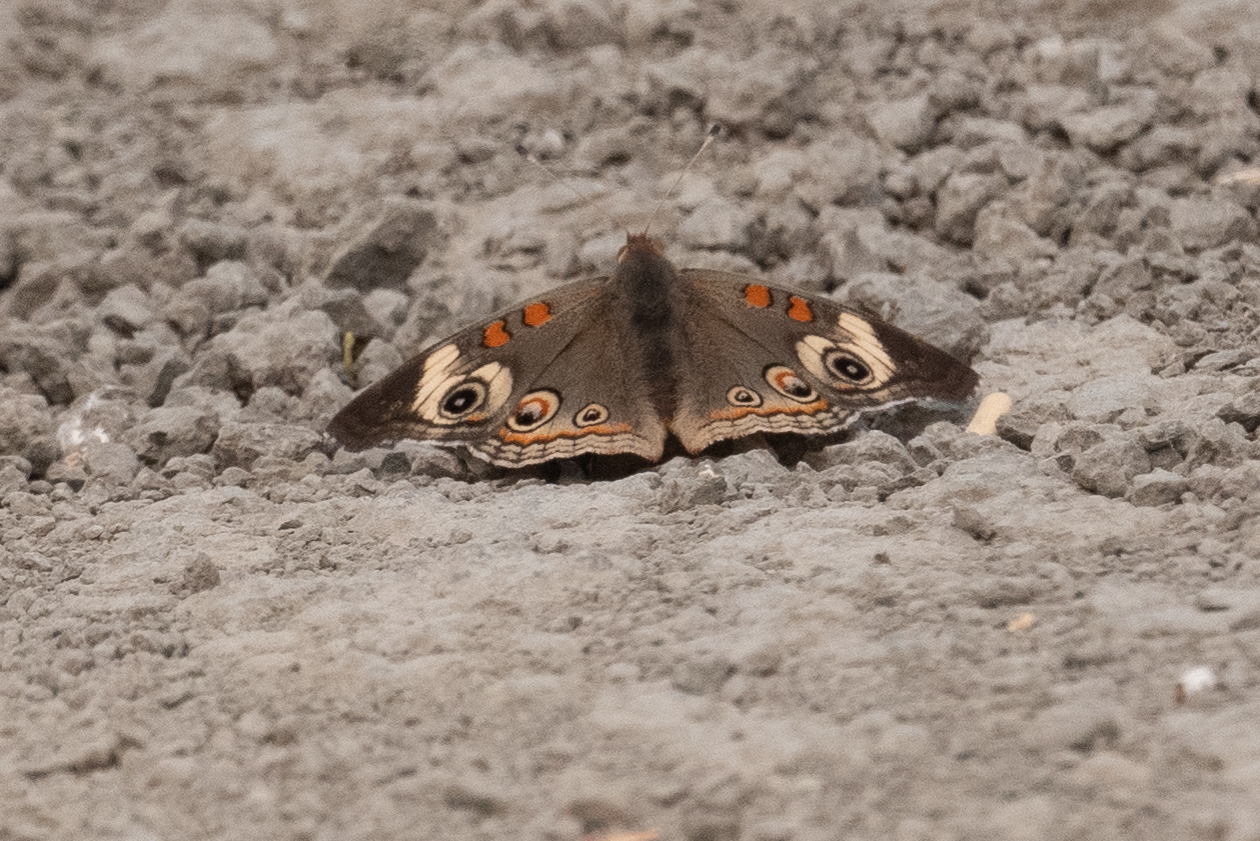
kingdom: Animalia
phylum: Arthropoda
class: Insecta
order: Lepidoptera
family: Nymphalidae
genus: Junonia
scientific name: Junonia grisea
